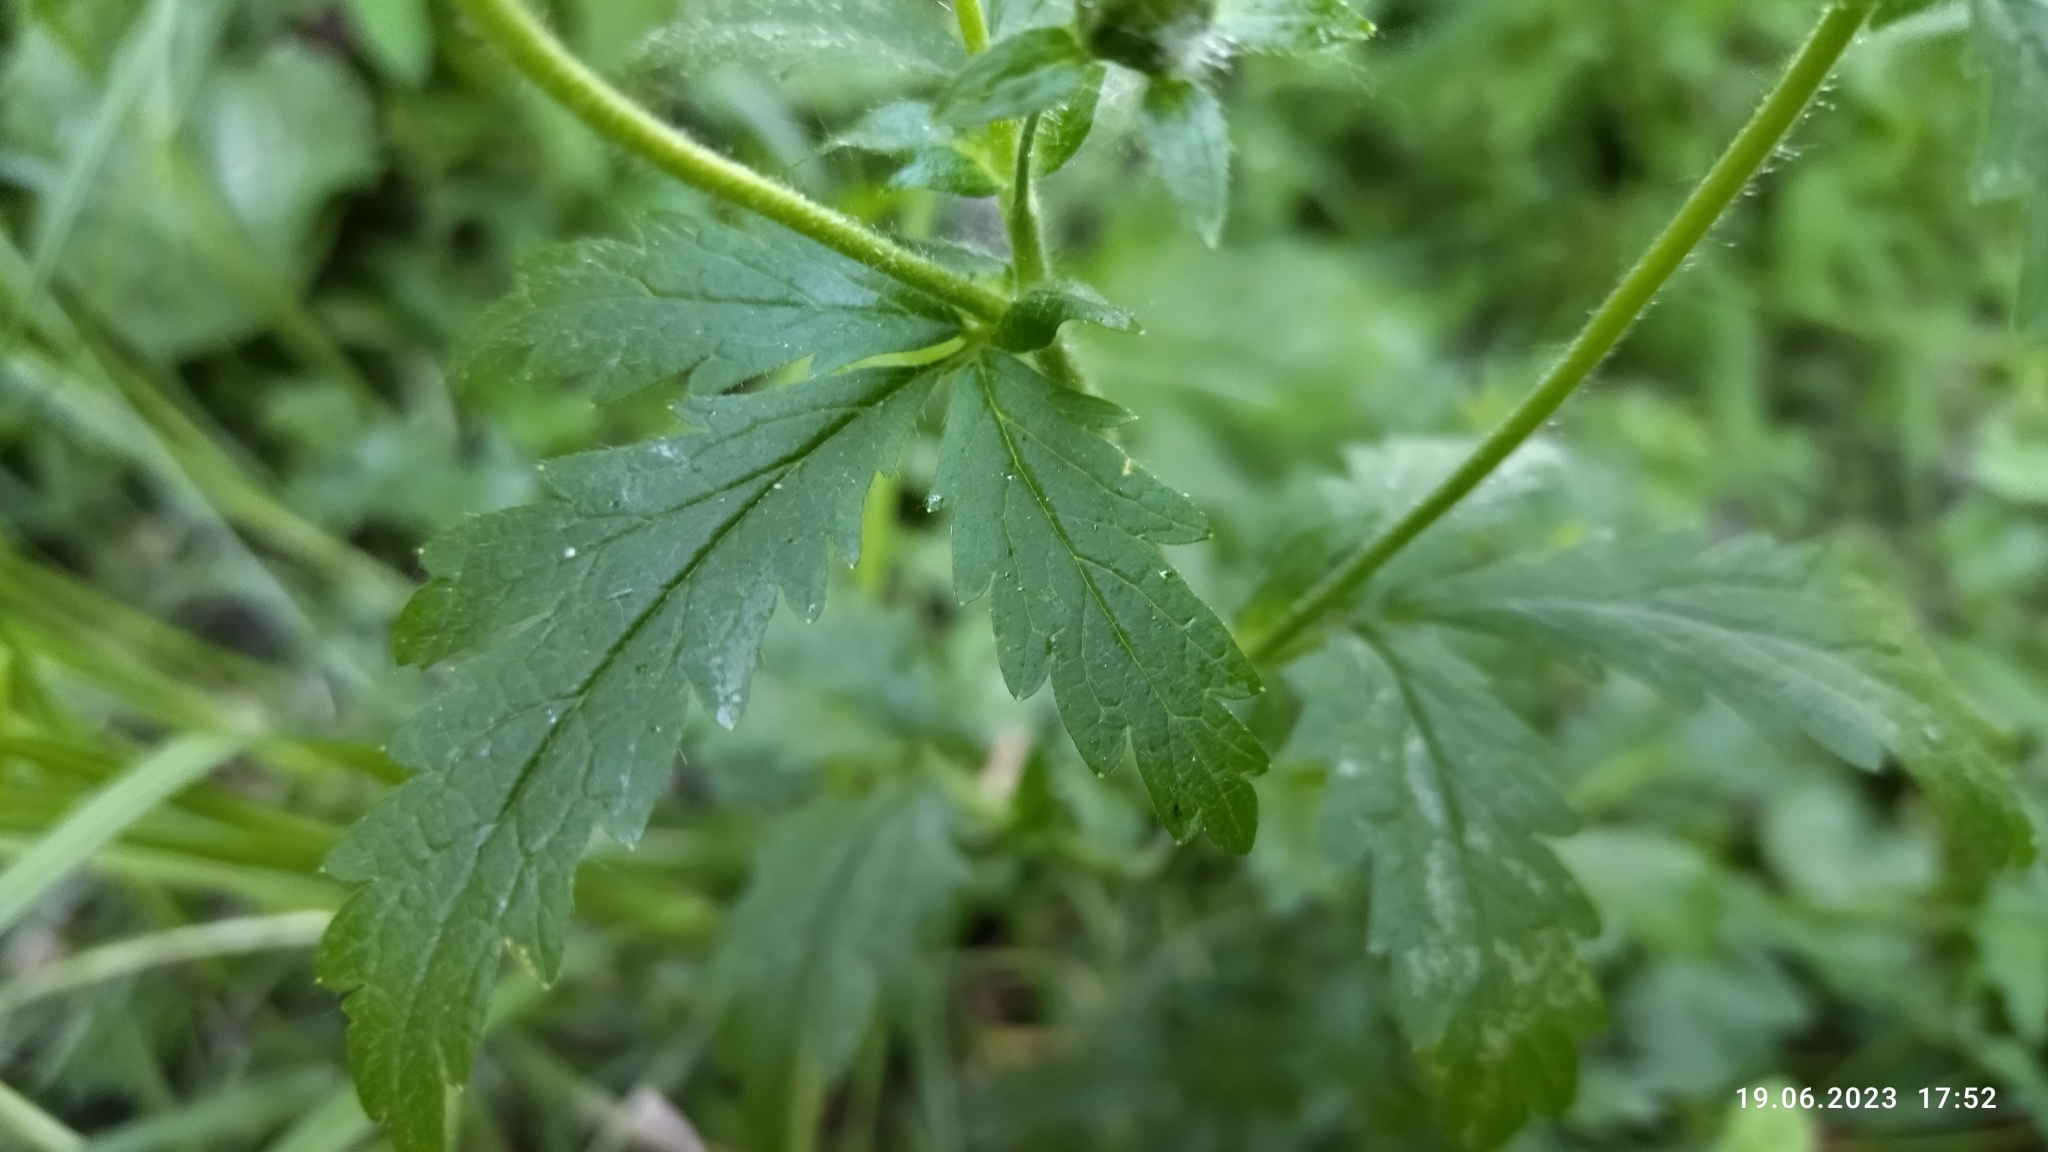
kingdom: Plantae
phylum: Tracheophyta
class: Magnoliopsida
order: Rosales
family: Rosaceae
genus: Potentilla
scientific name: Potentilla norvegica
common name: Ternate-leaved cinquefoil
